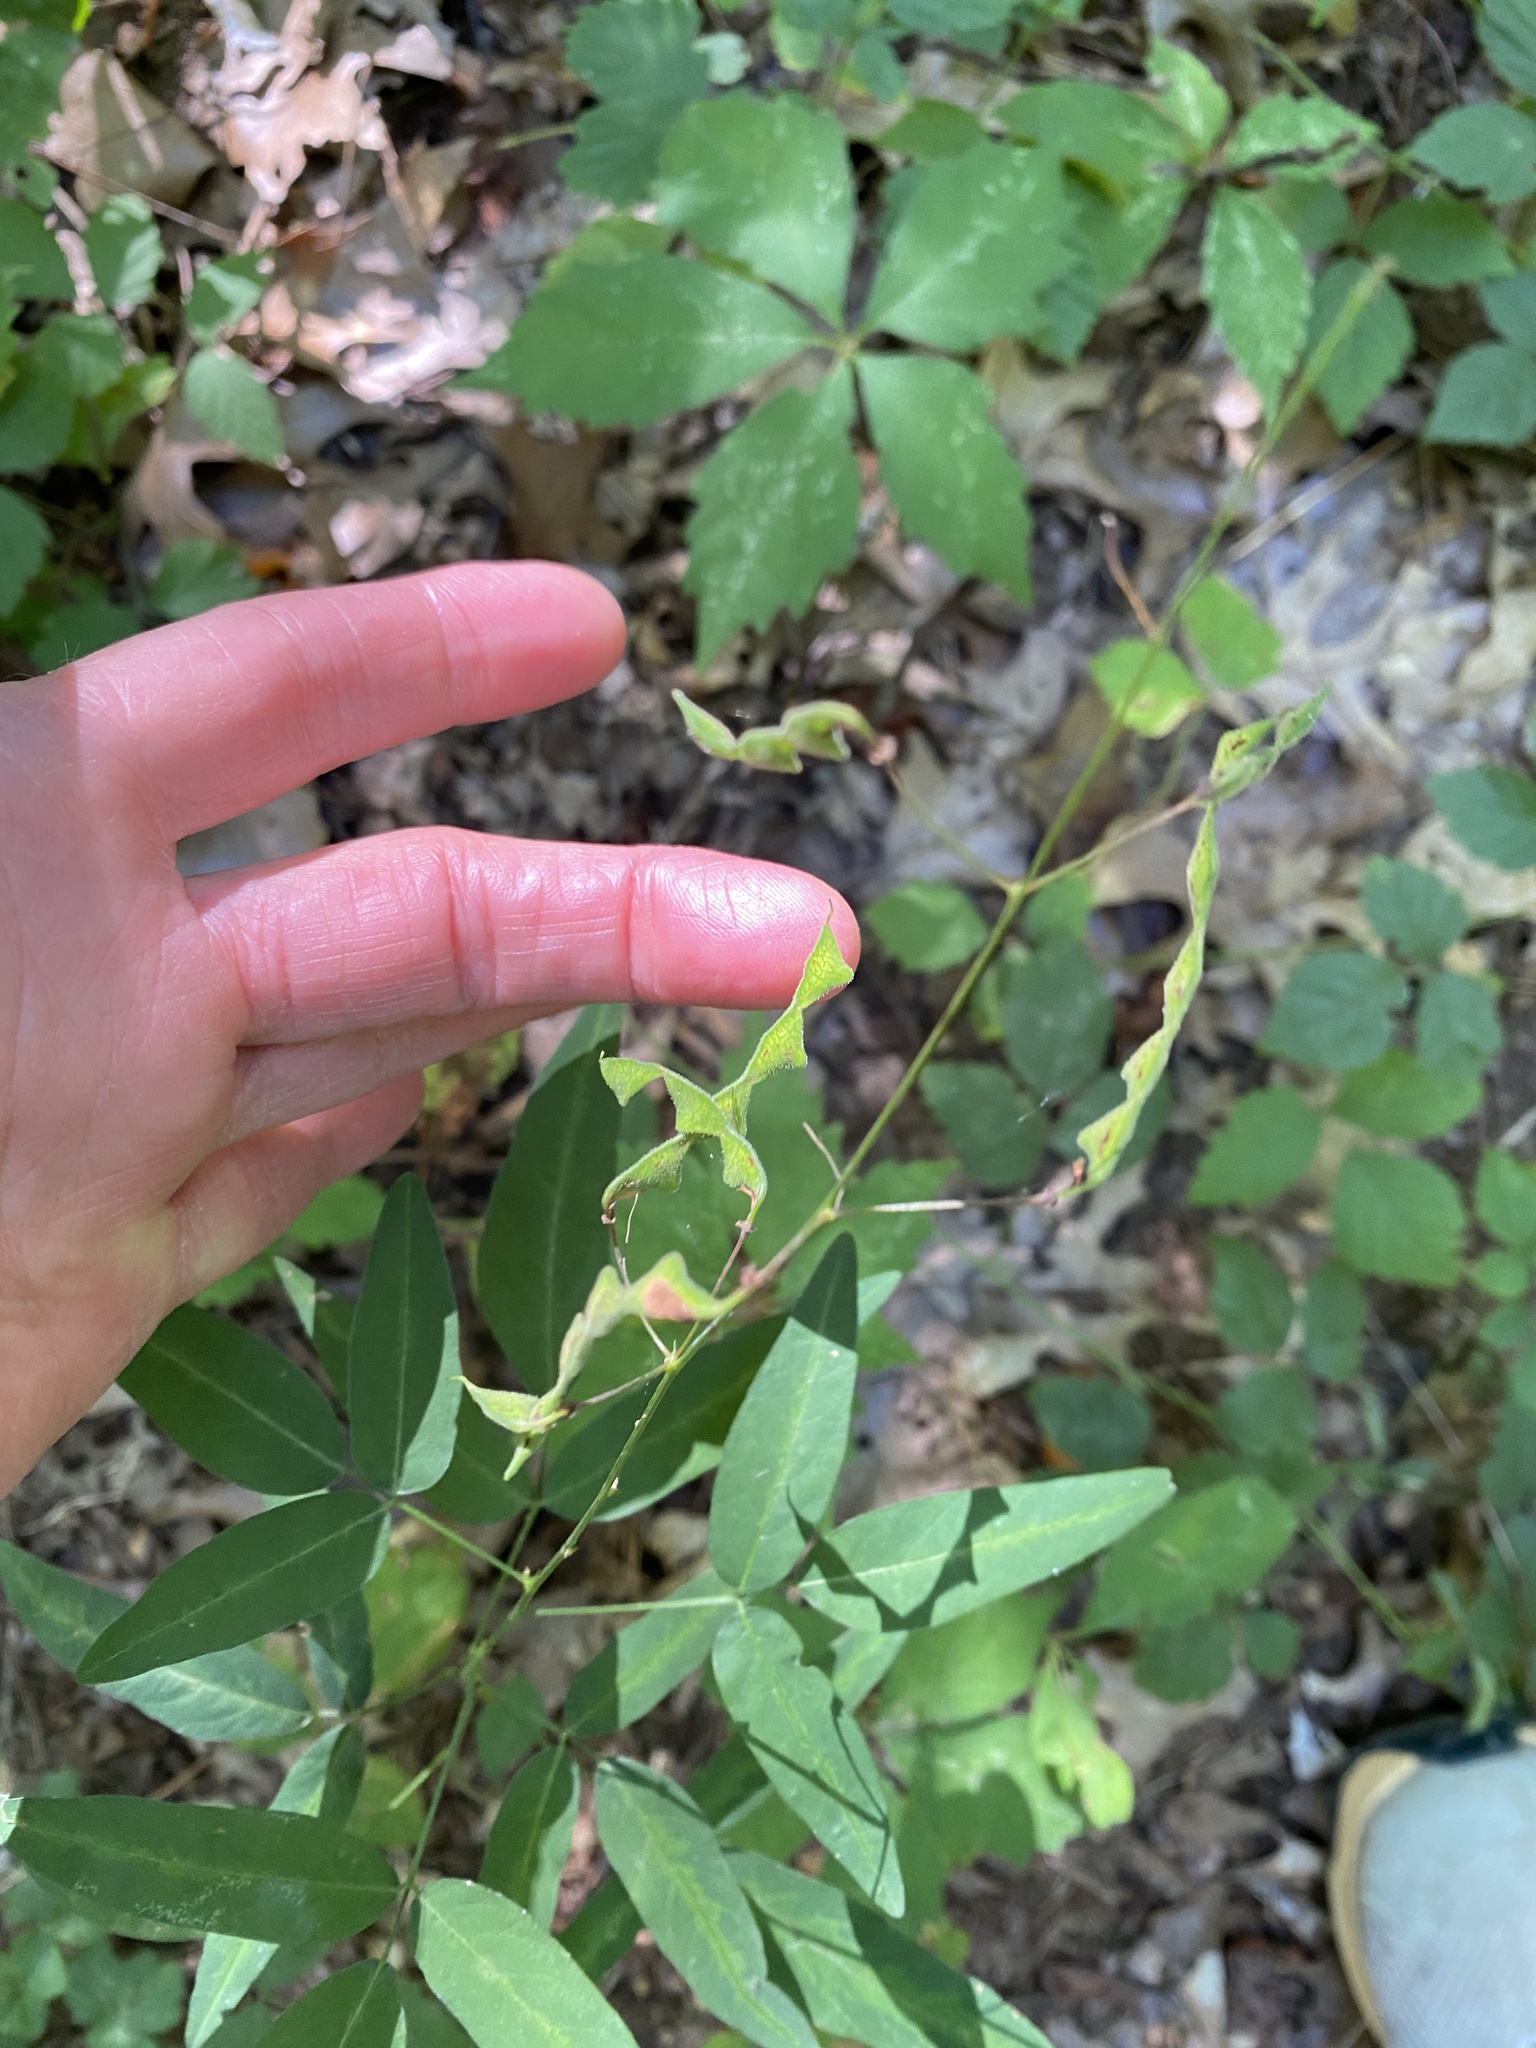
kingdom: Plantae
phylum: Tracheophyta
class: Magnoliopsida
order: Fabales
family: Fabaceae
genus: Desmodium
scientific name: Desmodium paniculatum
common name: Panicled tick-clover
